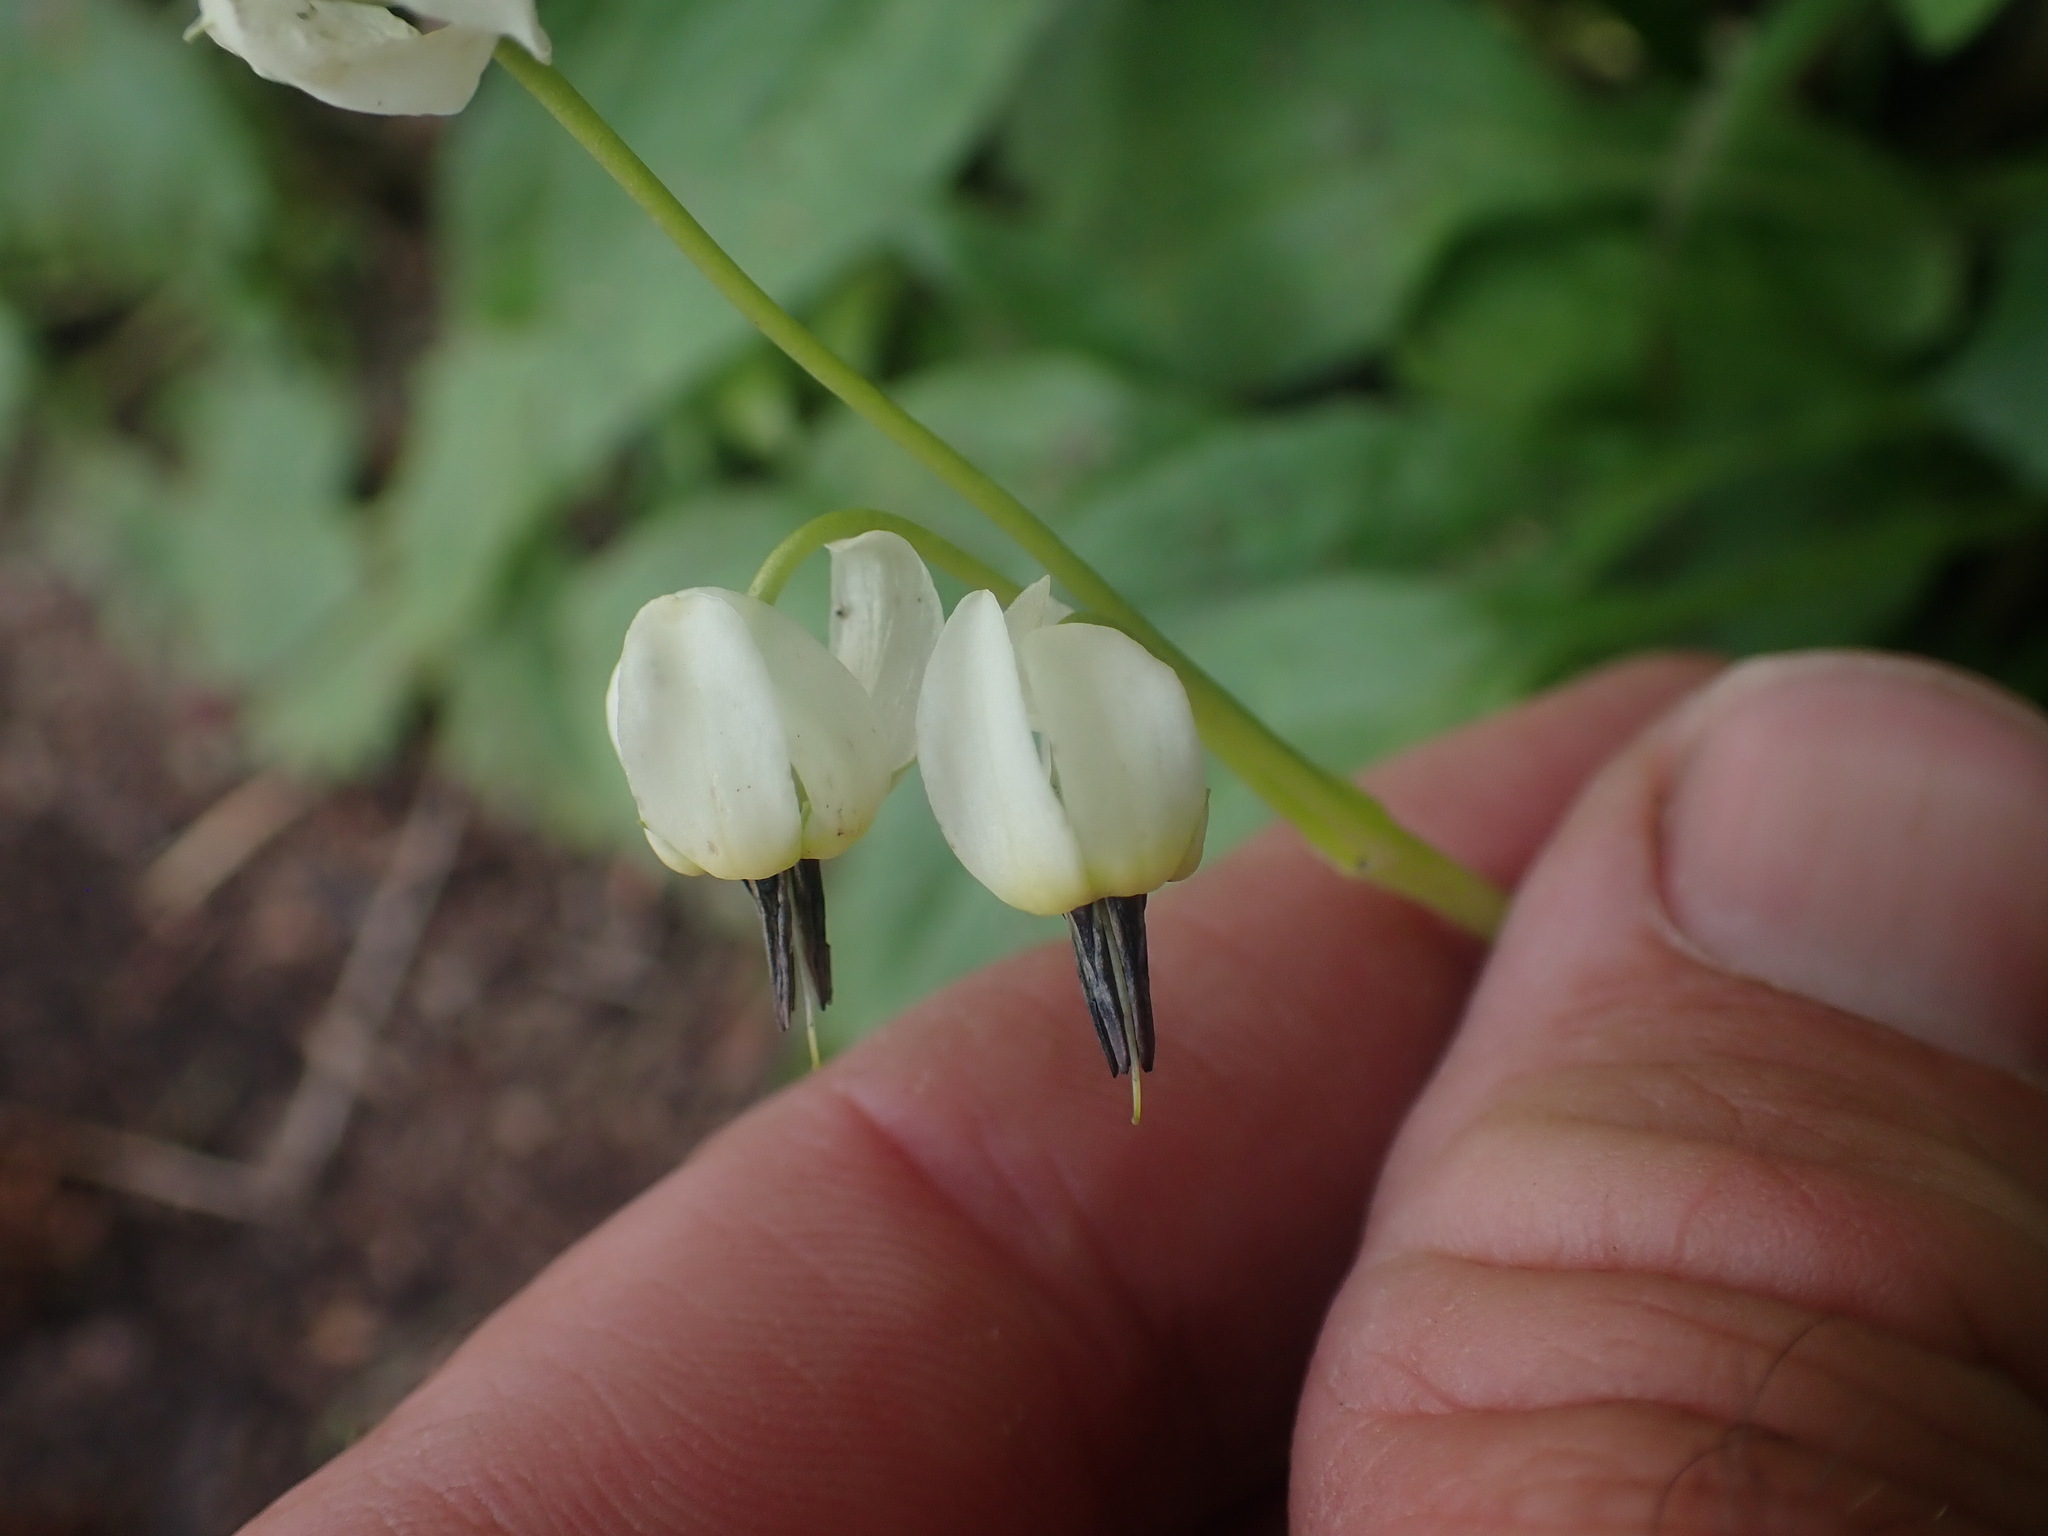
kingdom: Plantae
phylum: Tracheophyta
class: Magnoliopsida
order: Ericales
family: Primulaceae
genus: Dodecatheon
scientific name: Dodecatheon dentatum
